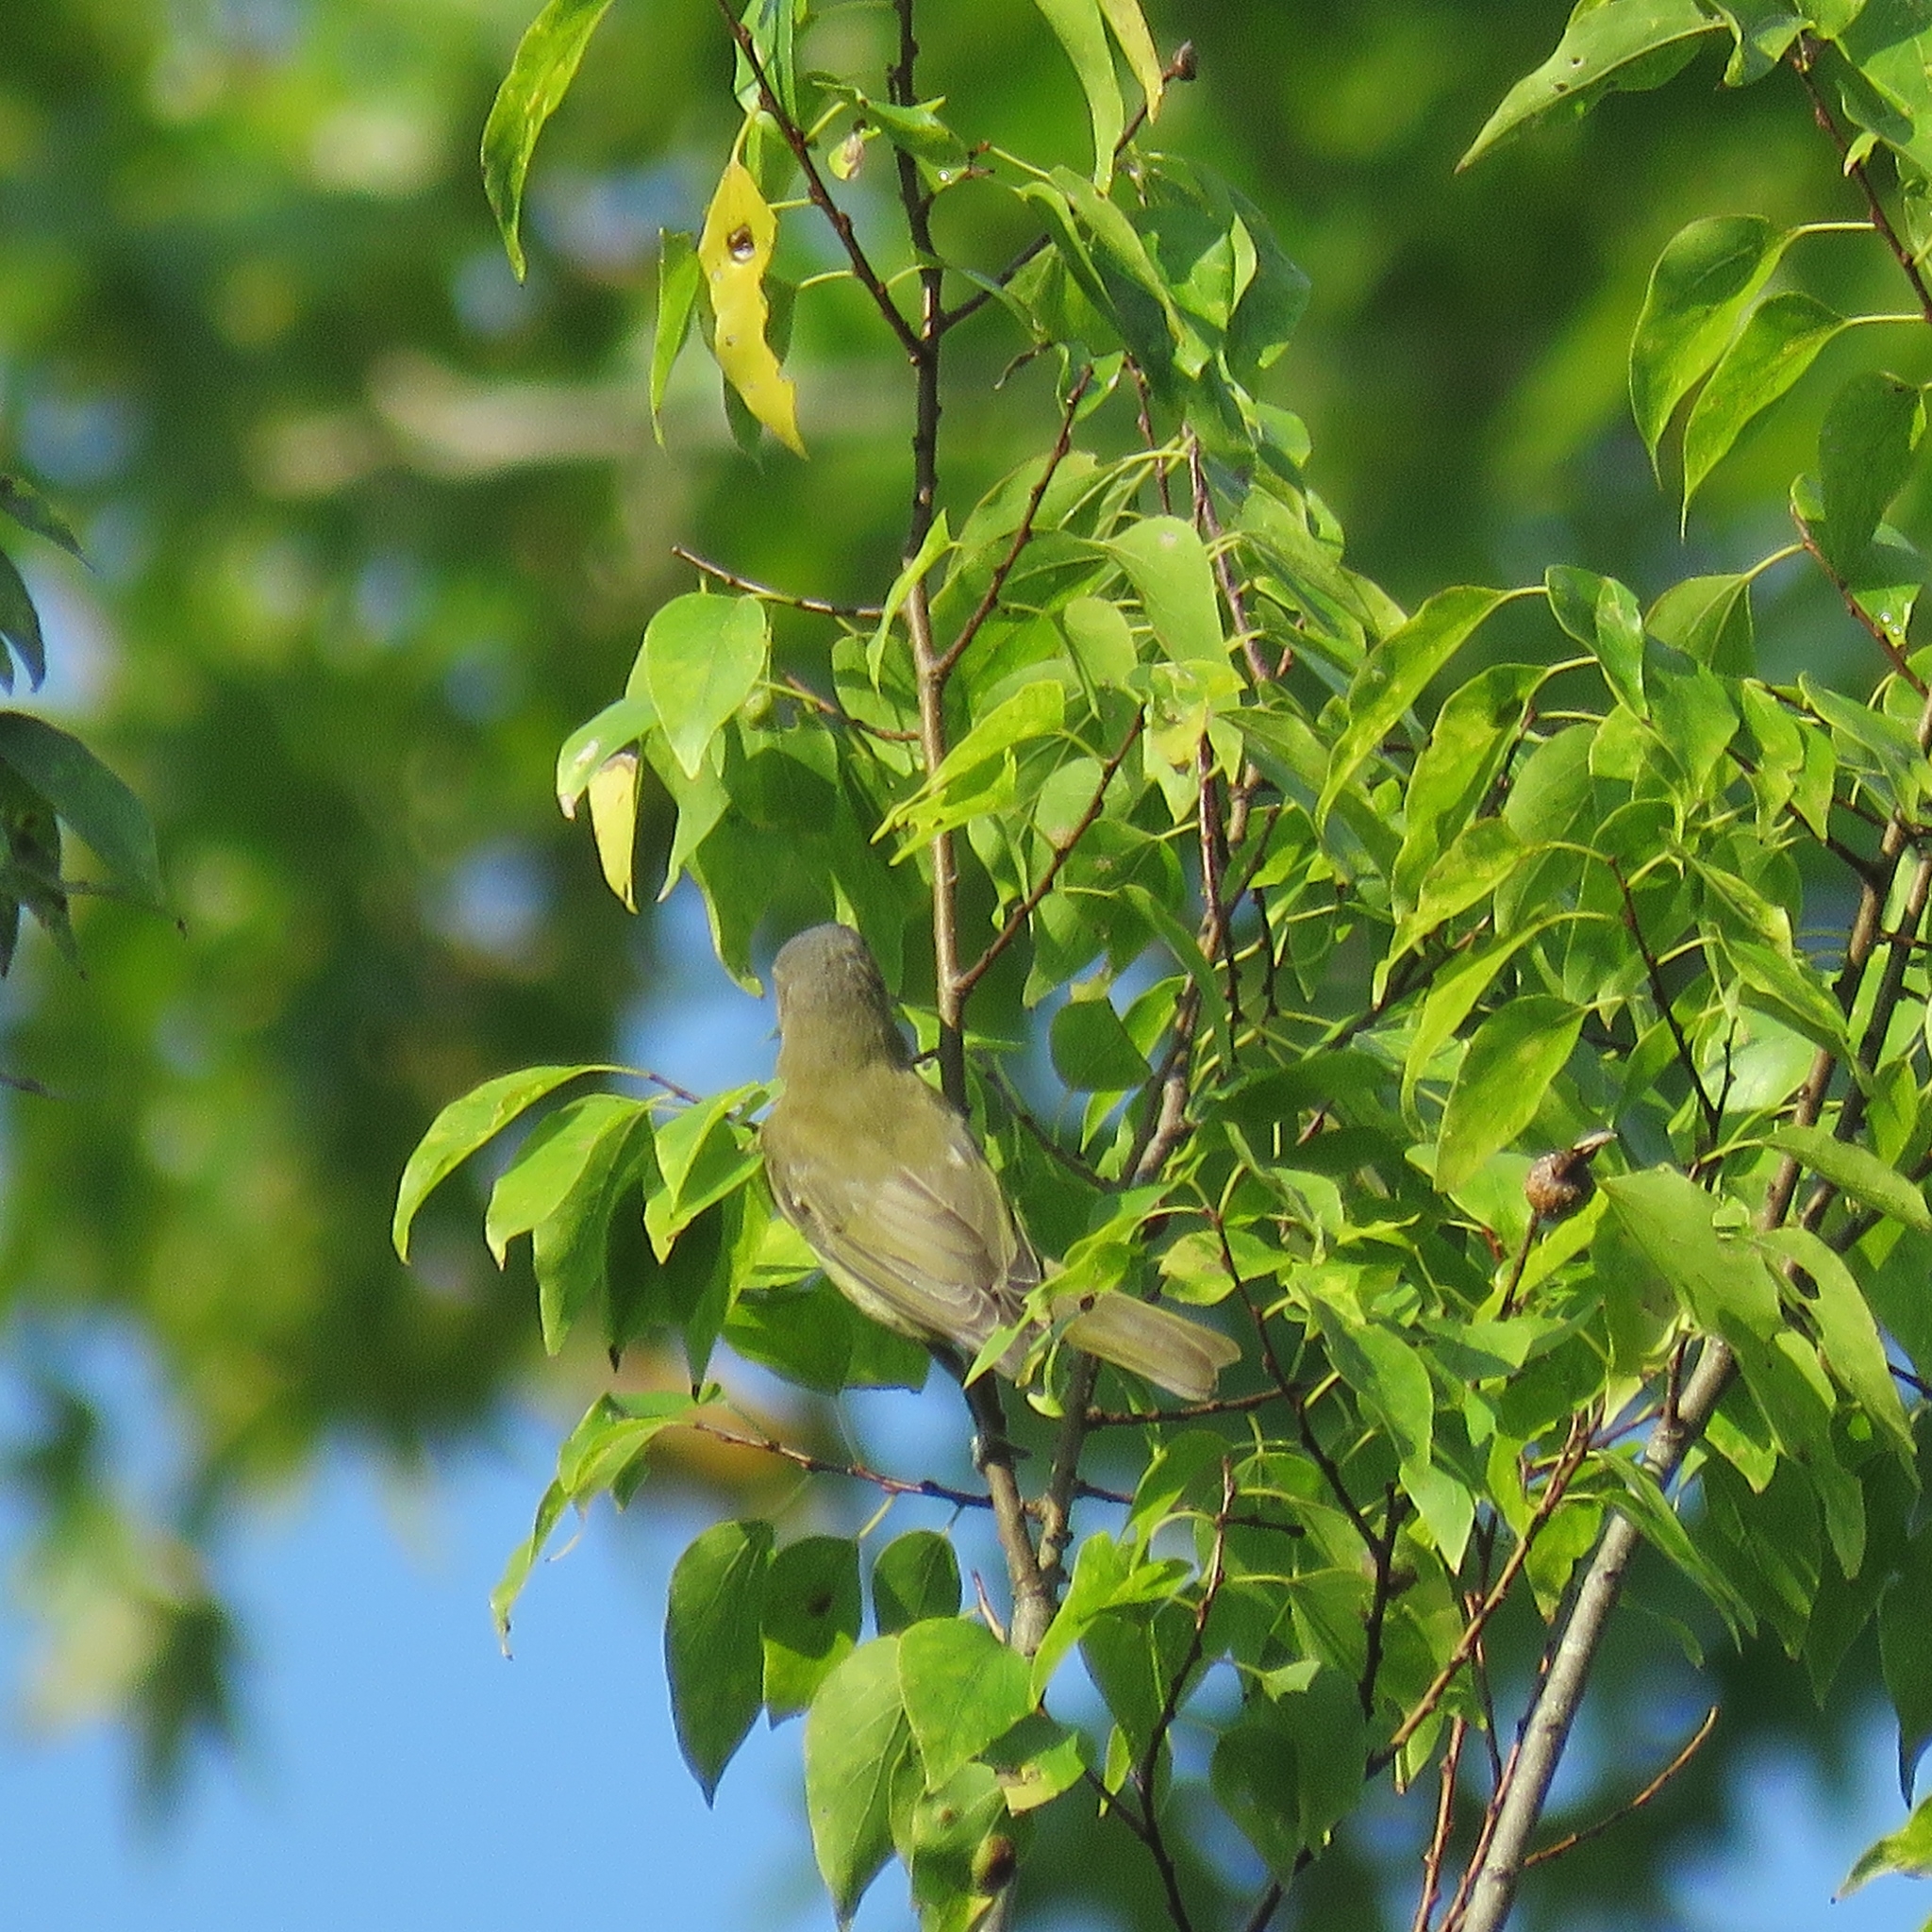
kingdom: Animalia
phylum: Chordata
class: Aves
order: Passeriformes
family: Vireonidae
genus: Vireo
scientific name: Vireo olivaceus
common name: Red-eyed vireo
